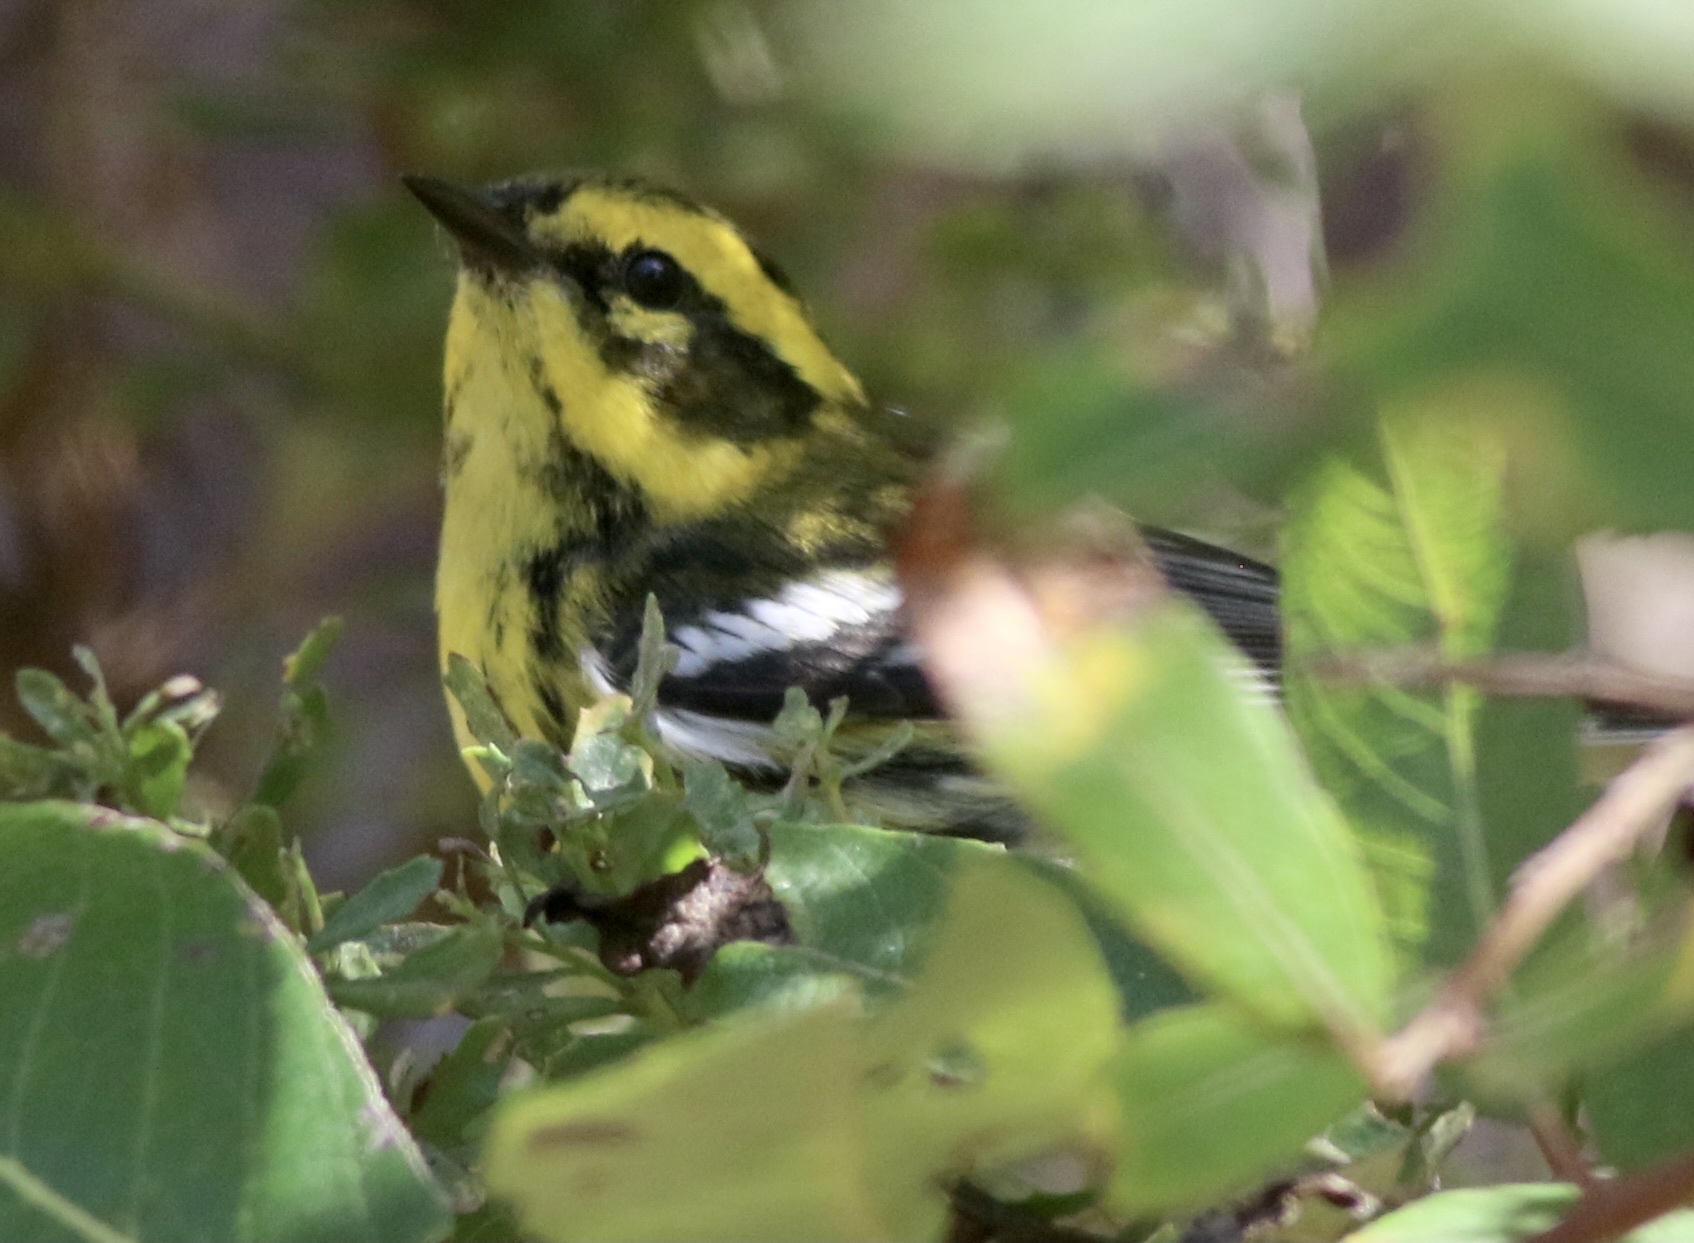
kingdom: Animalia
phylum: Chordata
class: Aves
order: Passeriformes
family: Parulidae
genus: Setophaga
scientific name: Setophaga townsendi
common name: Townsend's warbler
